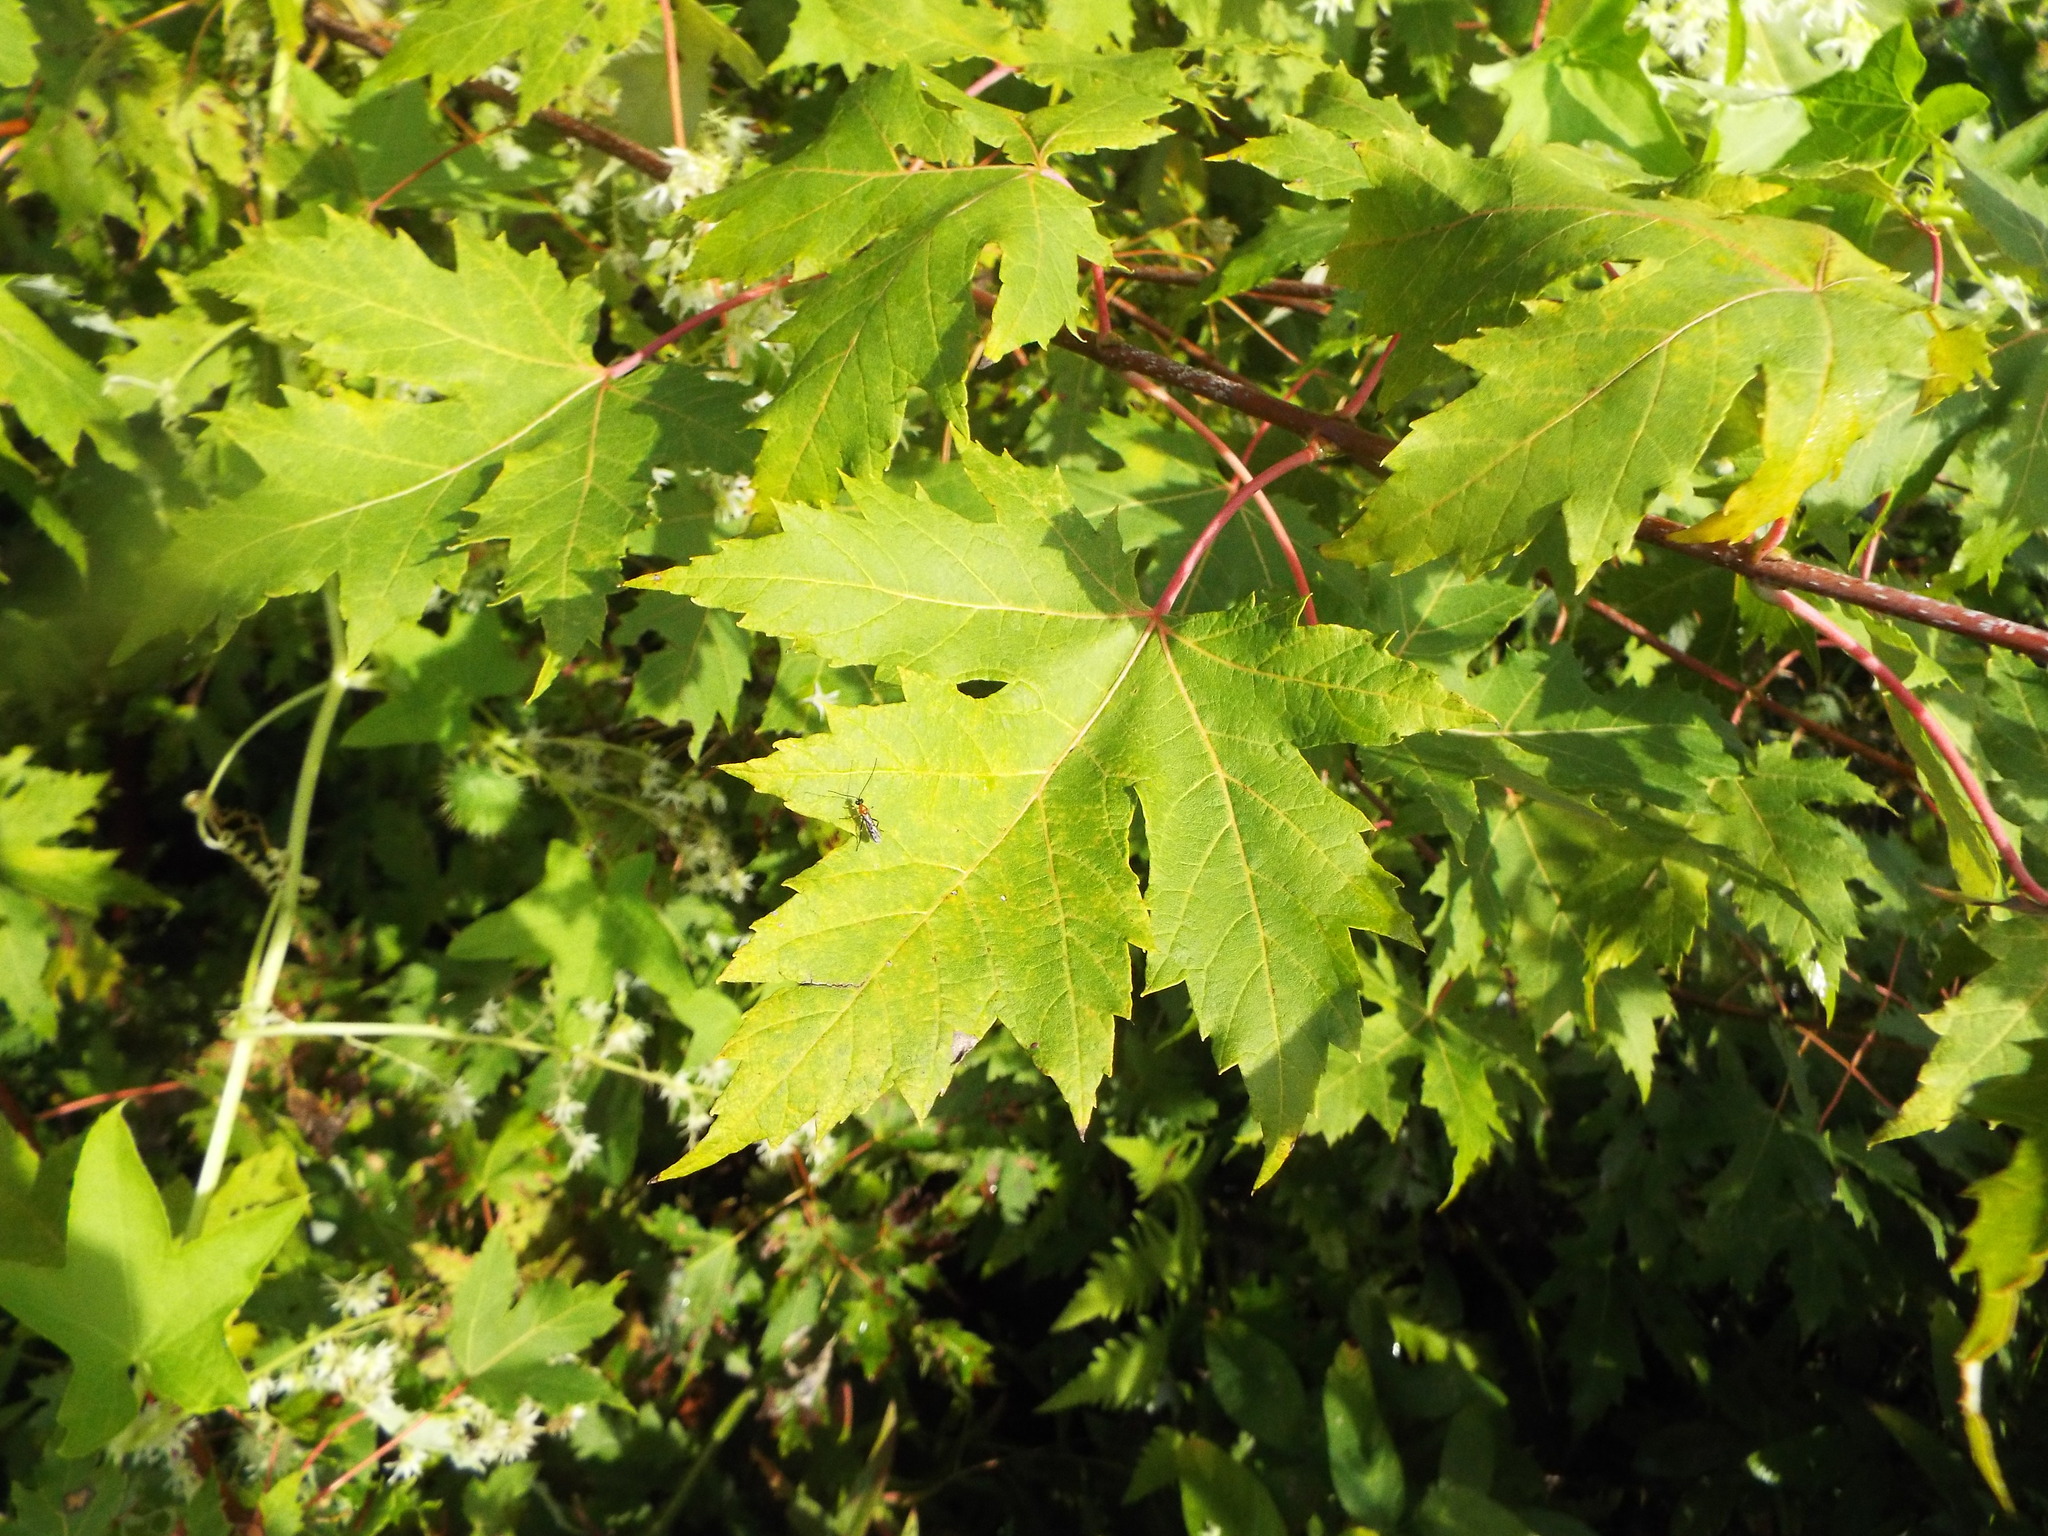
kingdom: Plantae
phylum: Tracheophyta
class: Magnoliopsida
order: Sapindales
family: Sapindaceae
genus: Acer
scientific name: Acer saccharinum
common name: Silver maple
